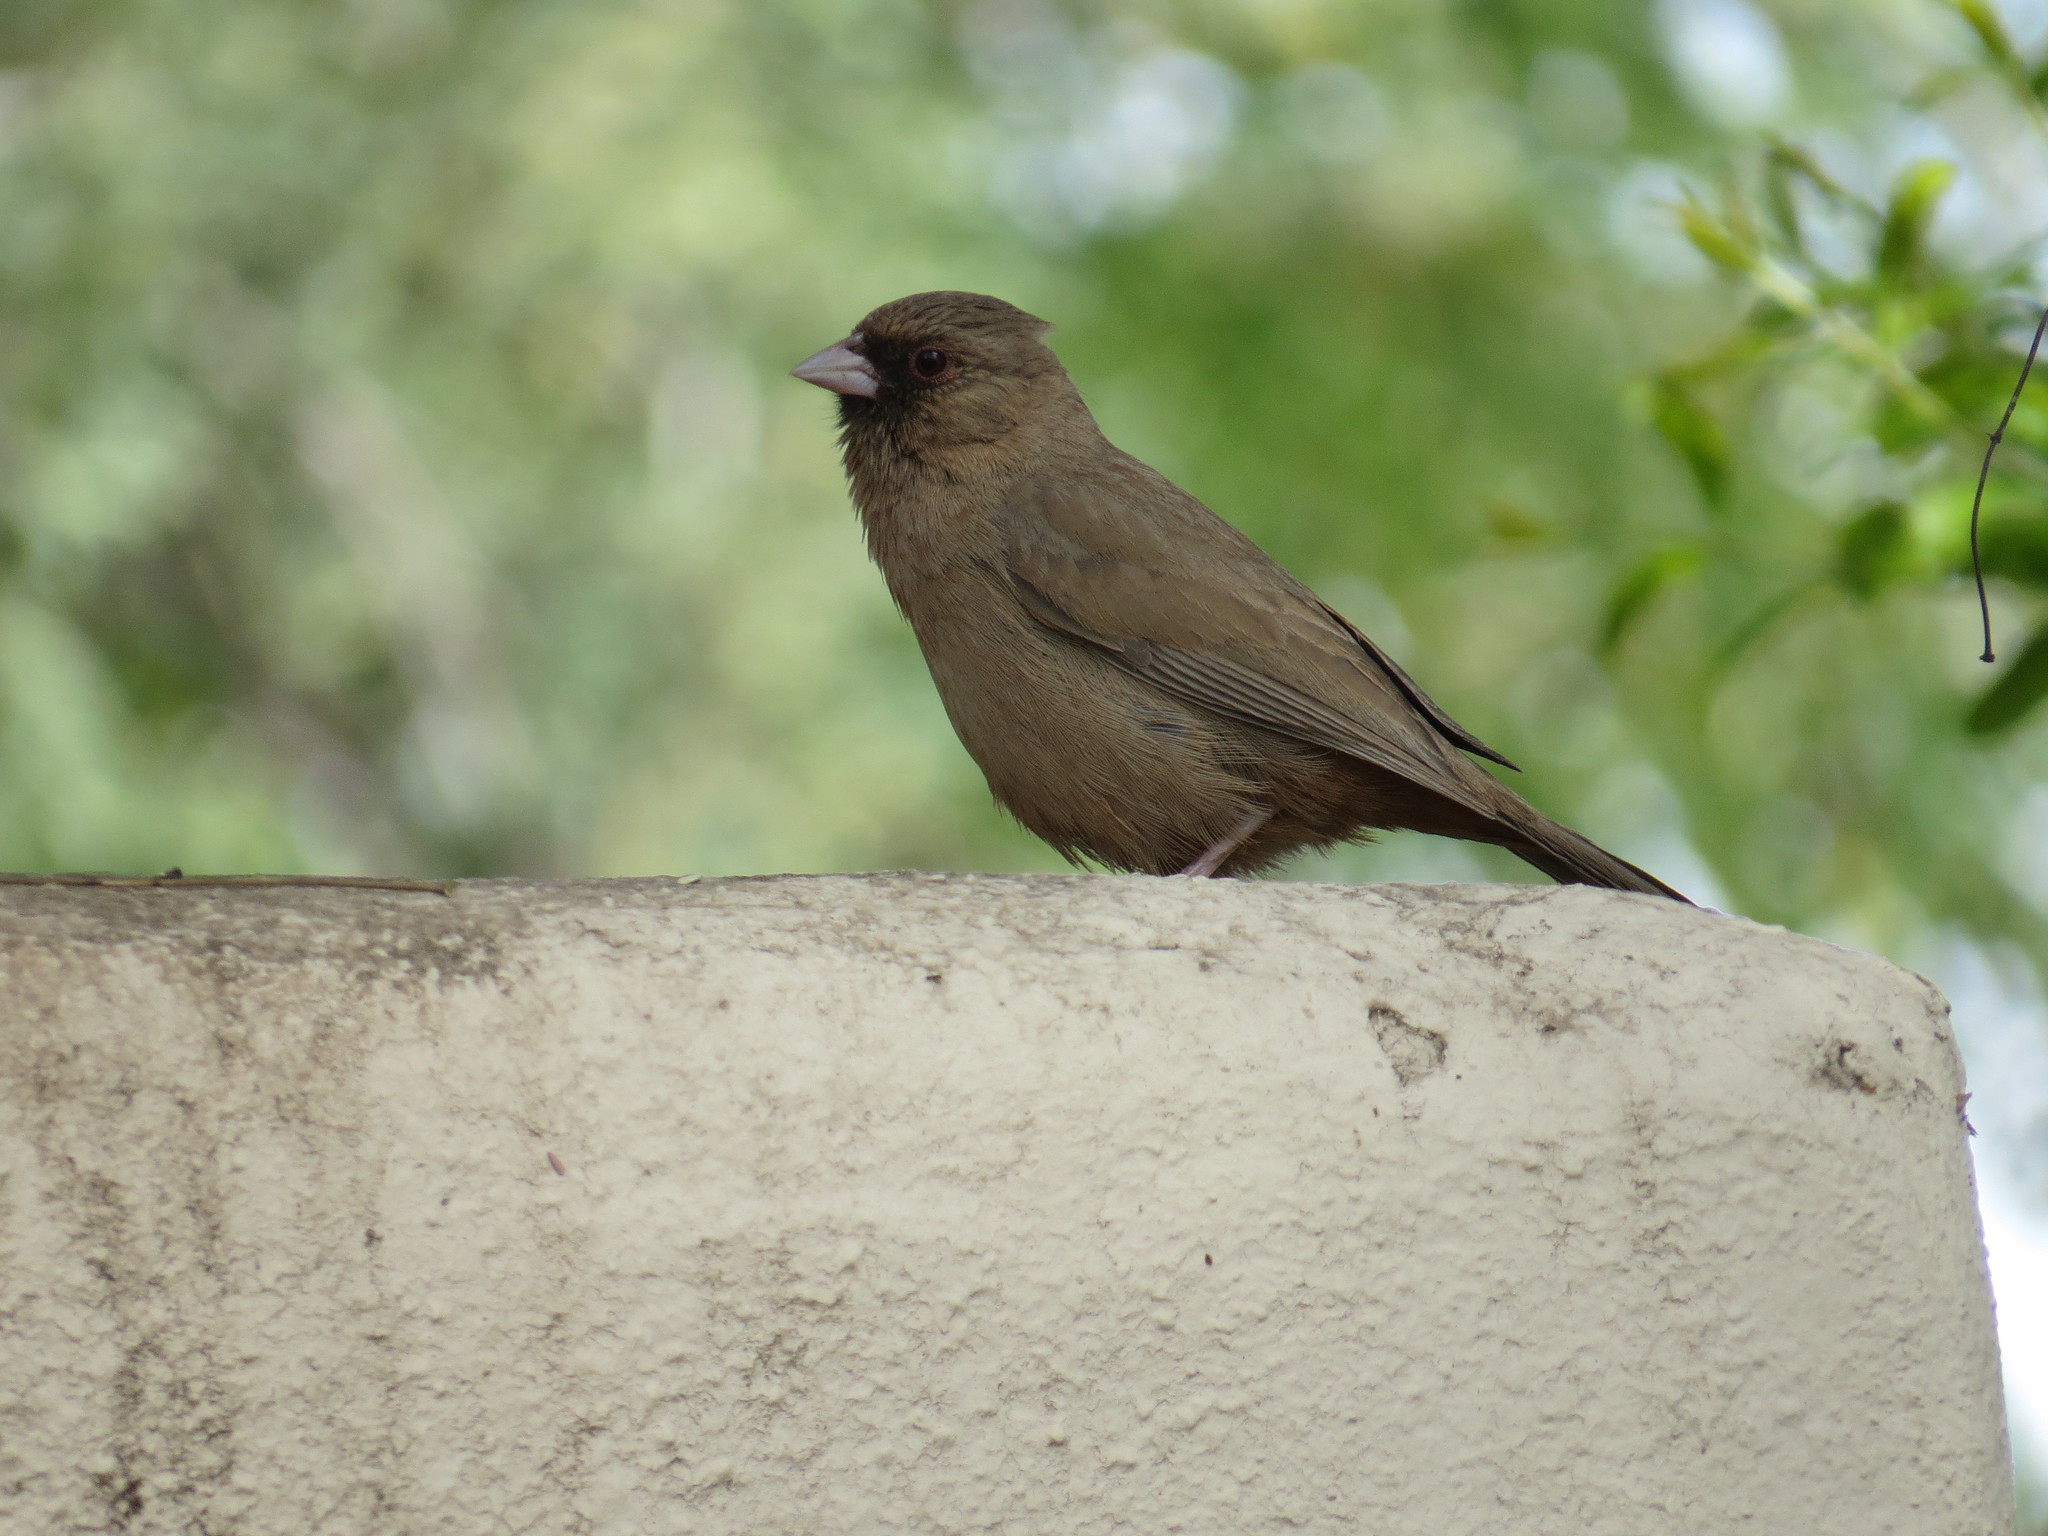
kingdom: Animalia
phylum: Chordata
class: Aves
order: Passeriformes
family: Passerellidae
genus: Melozone
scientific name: Melozone aberti
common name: Abert's towhee
